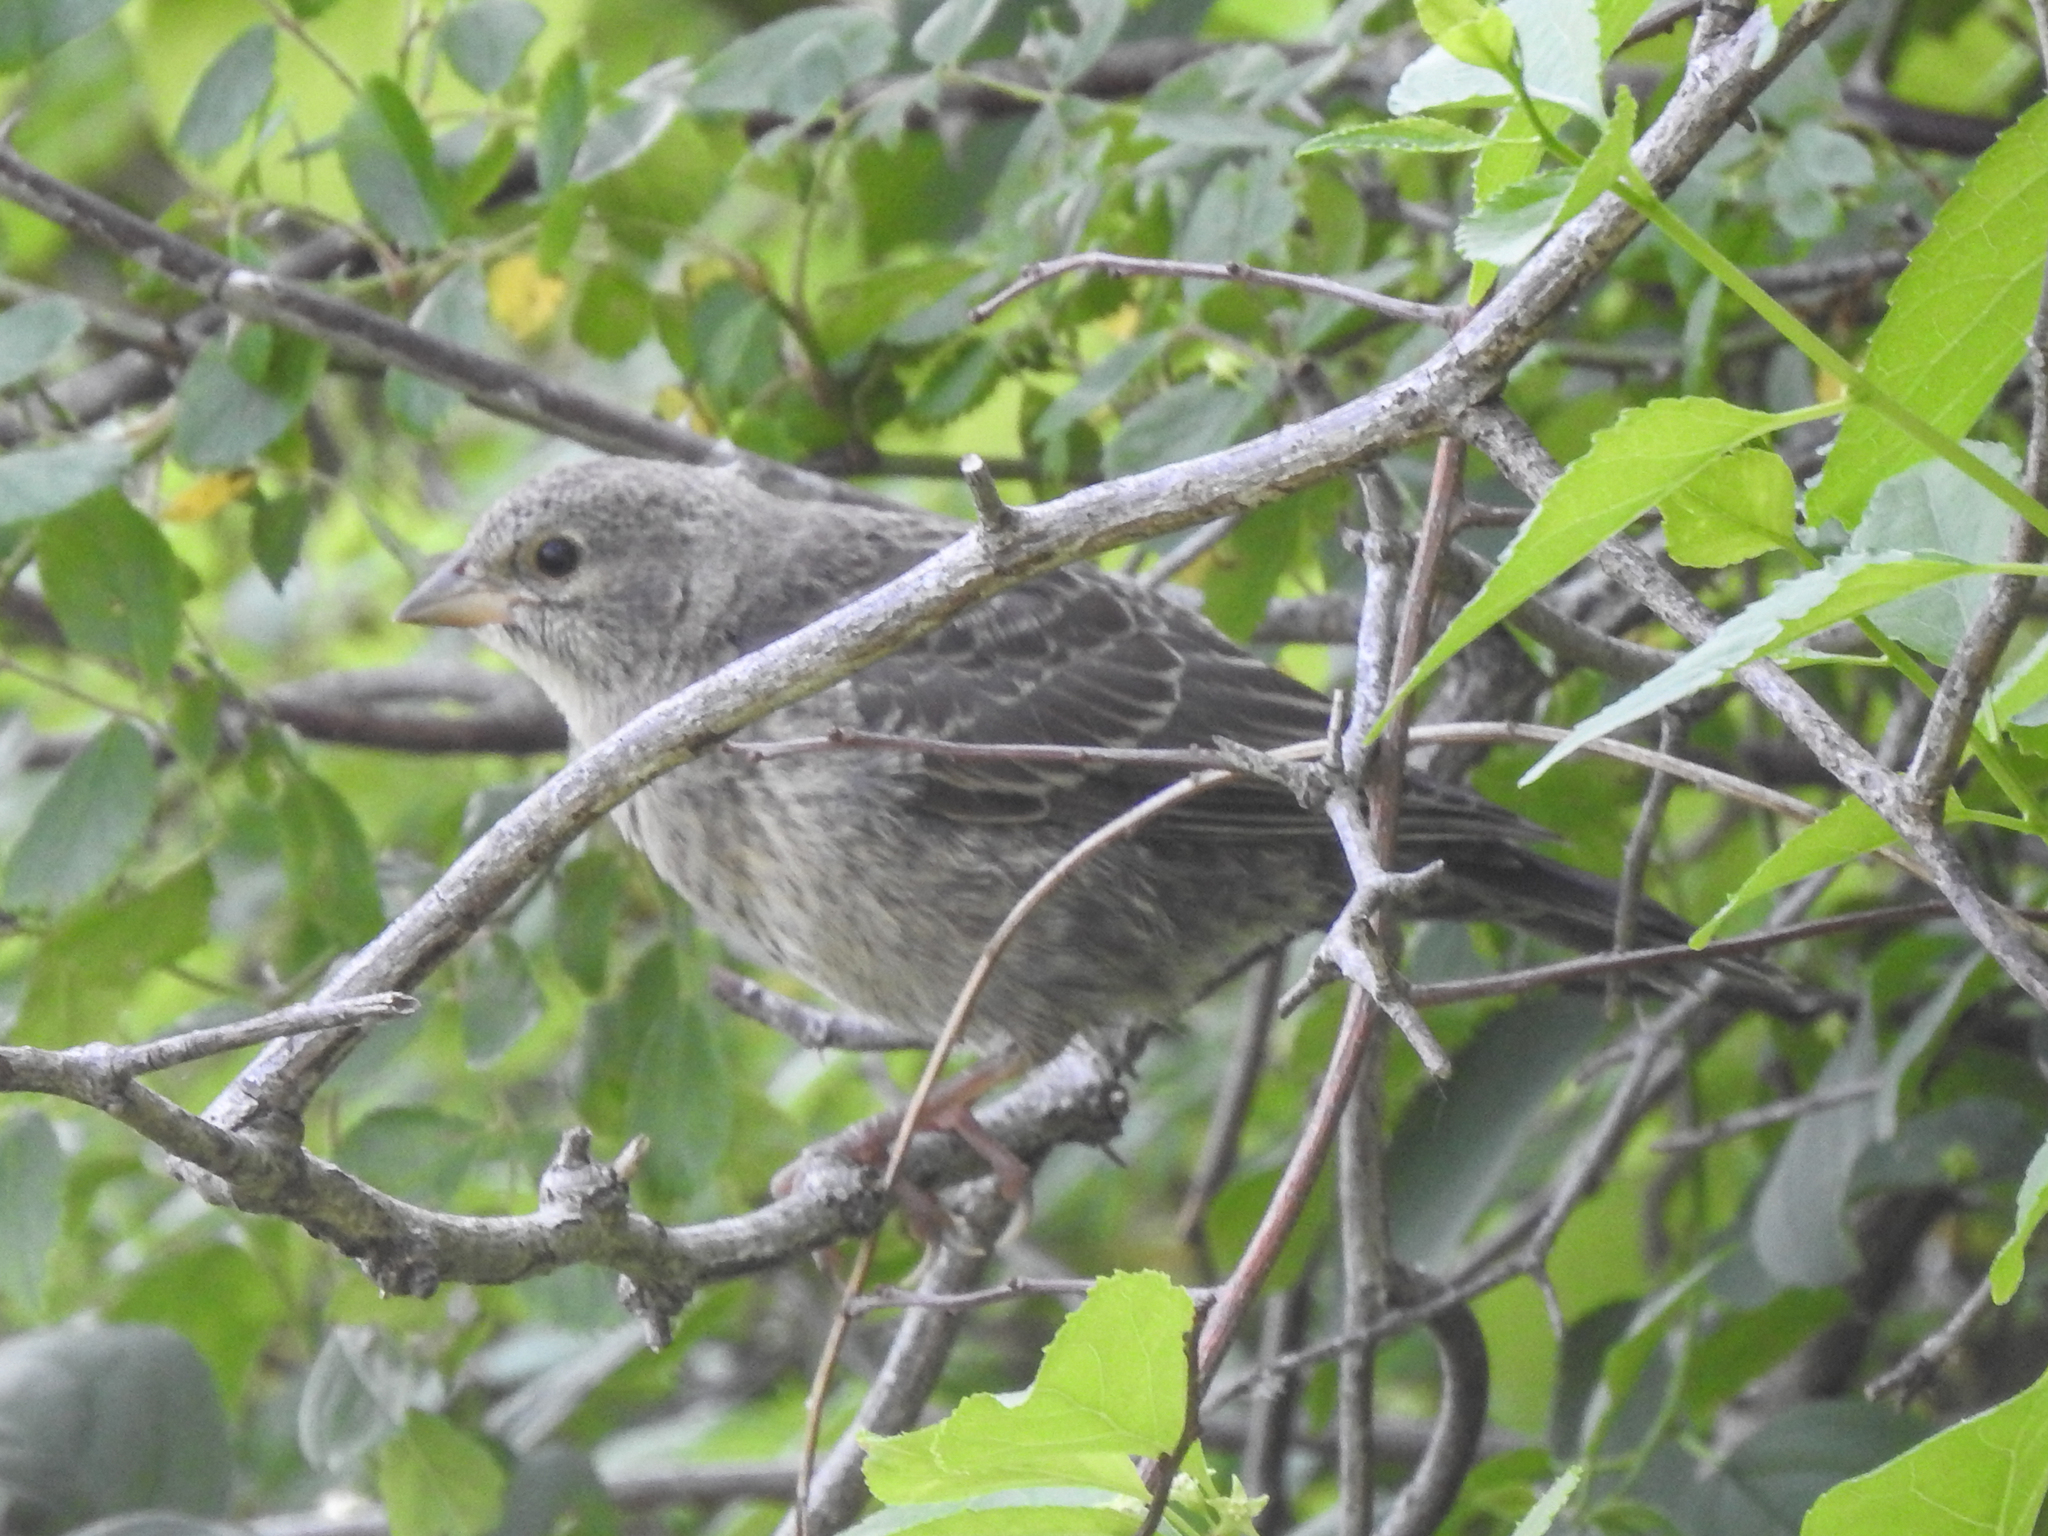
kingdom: Animalia
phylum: Chordata
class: Aves
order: Passeriformes
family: Icteridae
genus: Molothrus
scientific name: Molothrus ater
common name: Brown-headed cowbird
